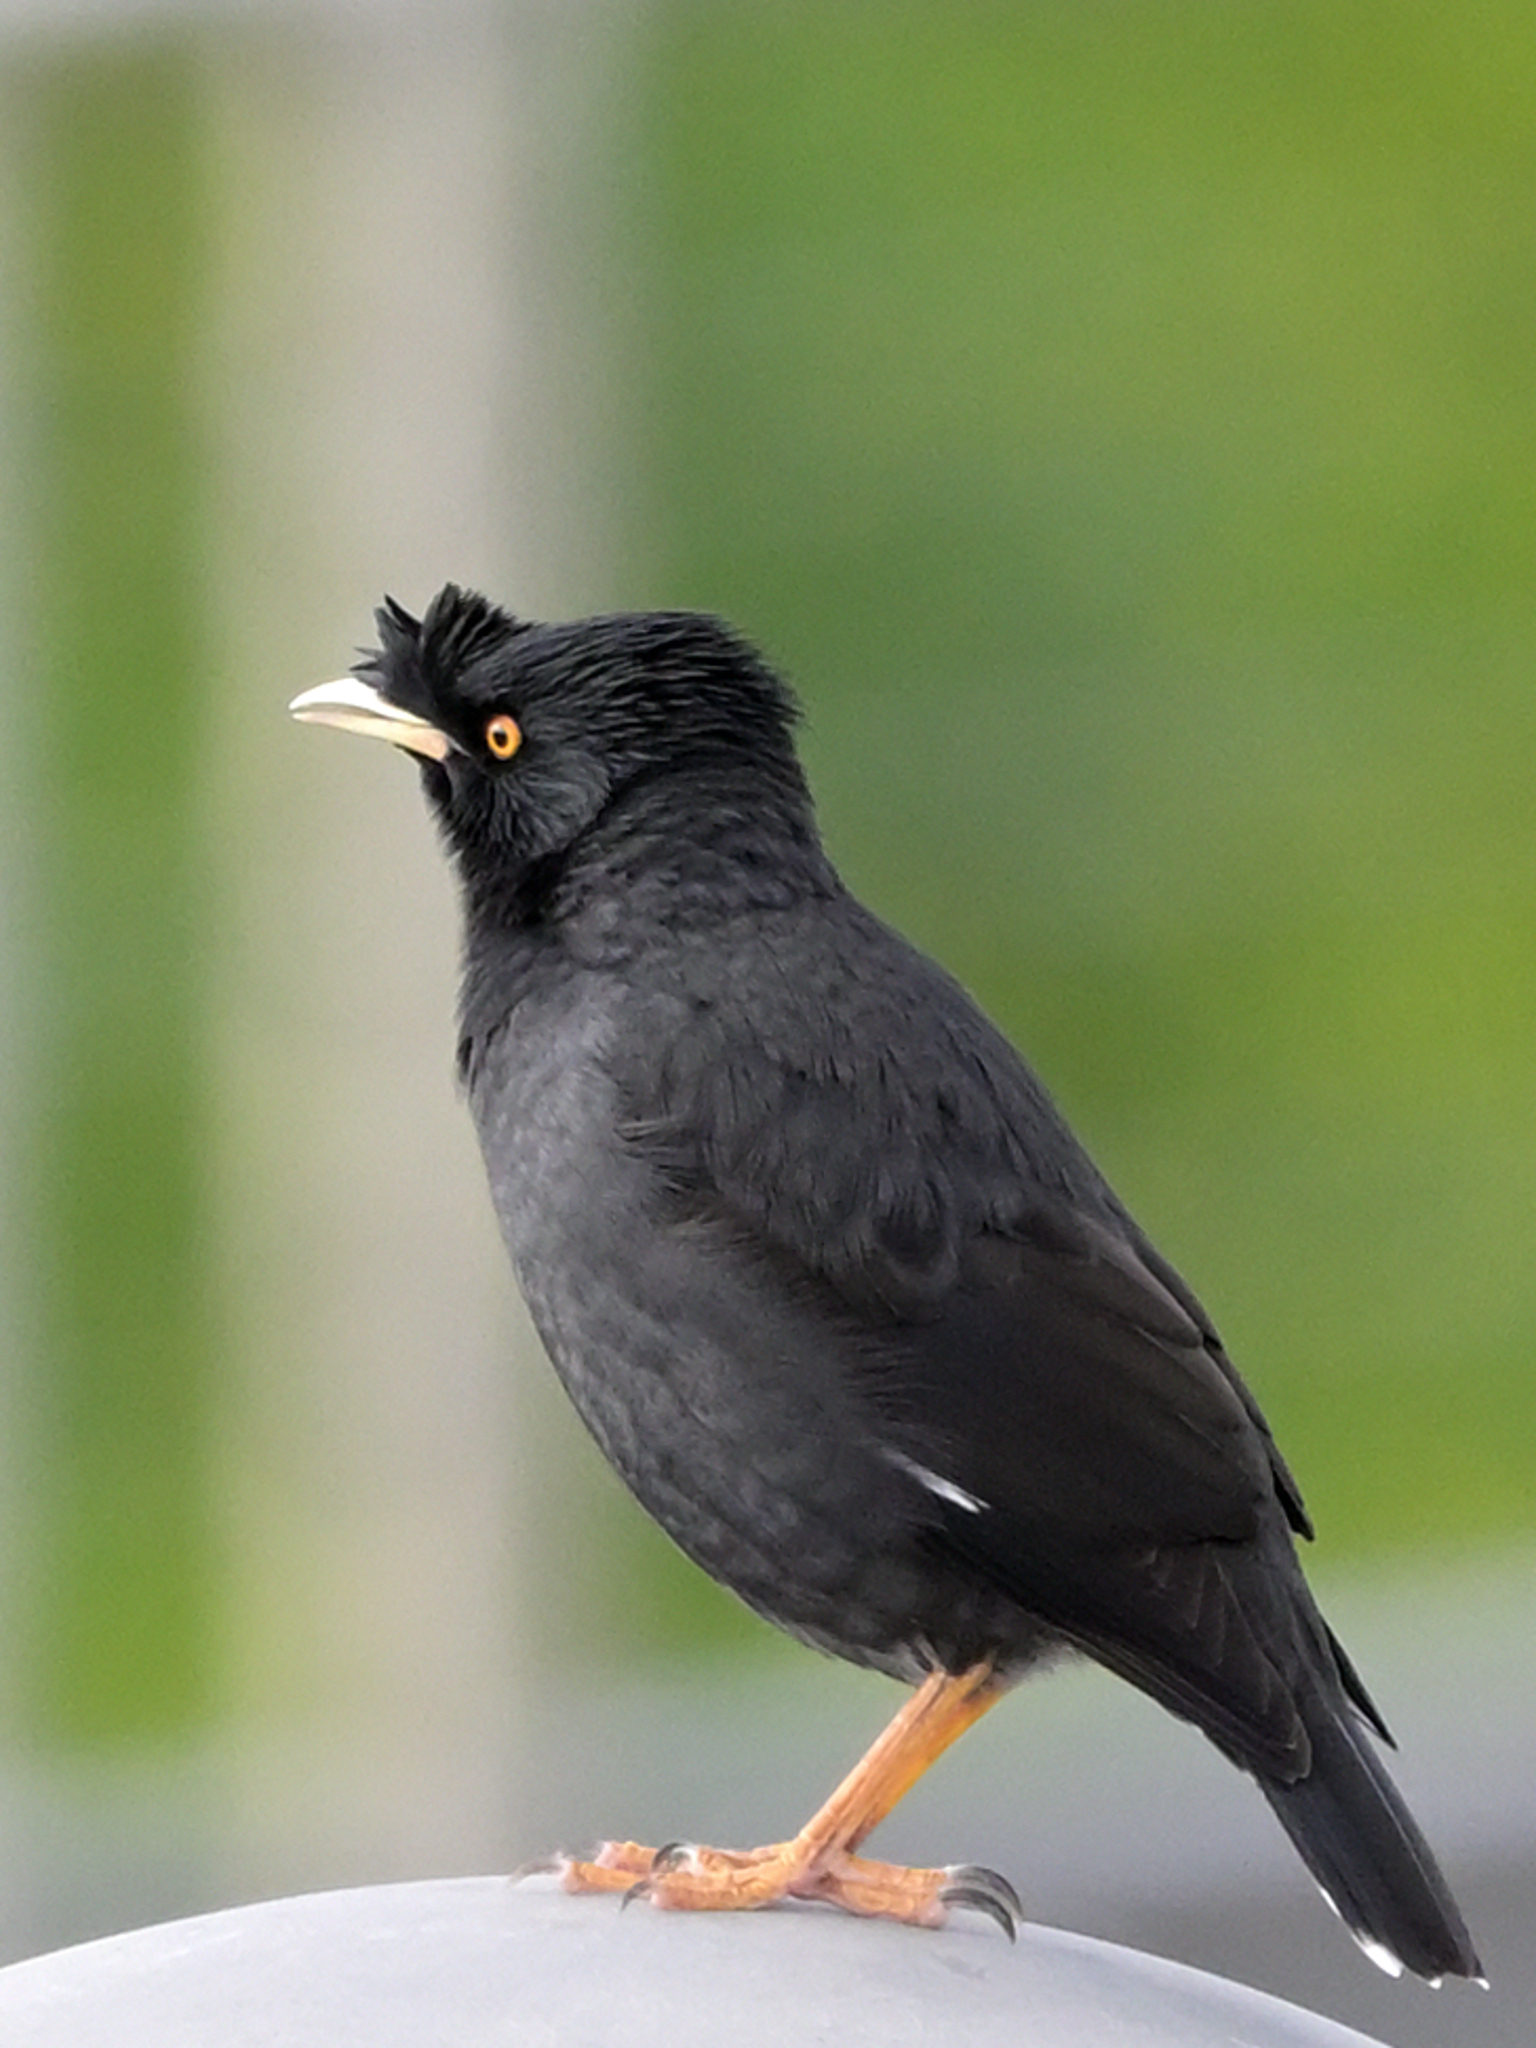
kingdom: Animalia
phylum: Chordata
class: Aves
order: Passeriformes
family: Sturnidae
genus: Acridotheres
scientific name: Acridotheres cristatellus
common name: Crested myna
